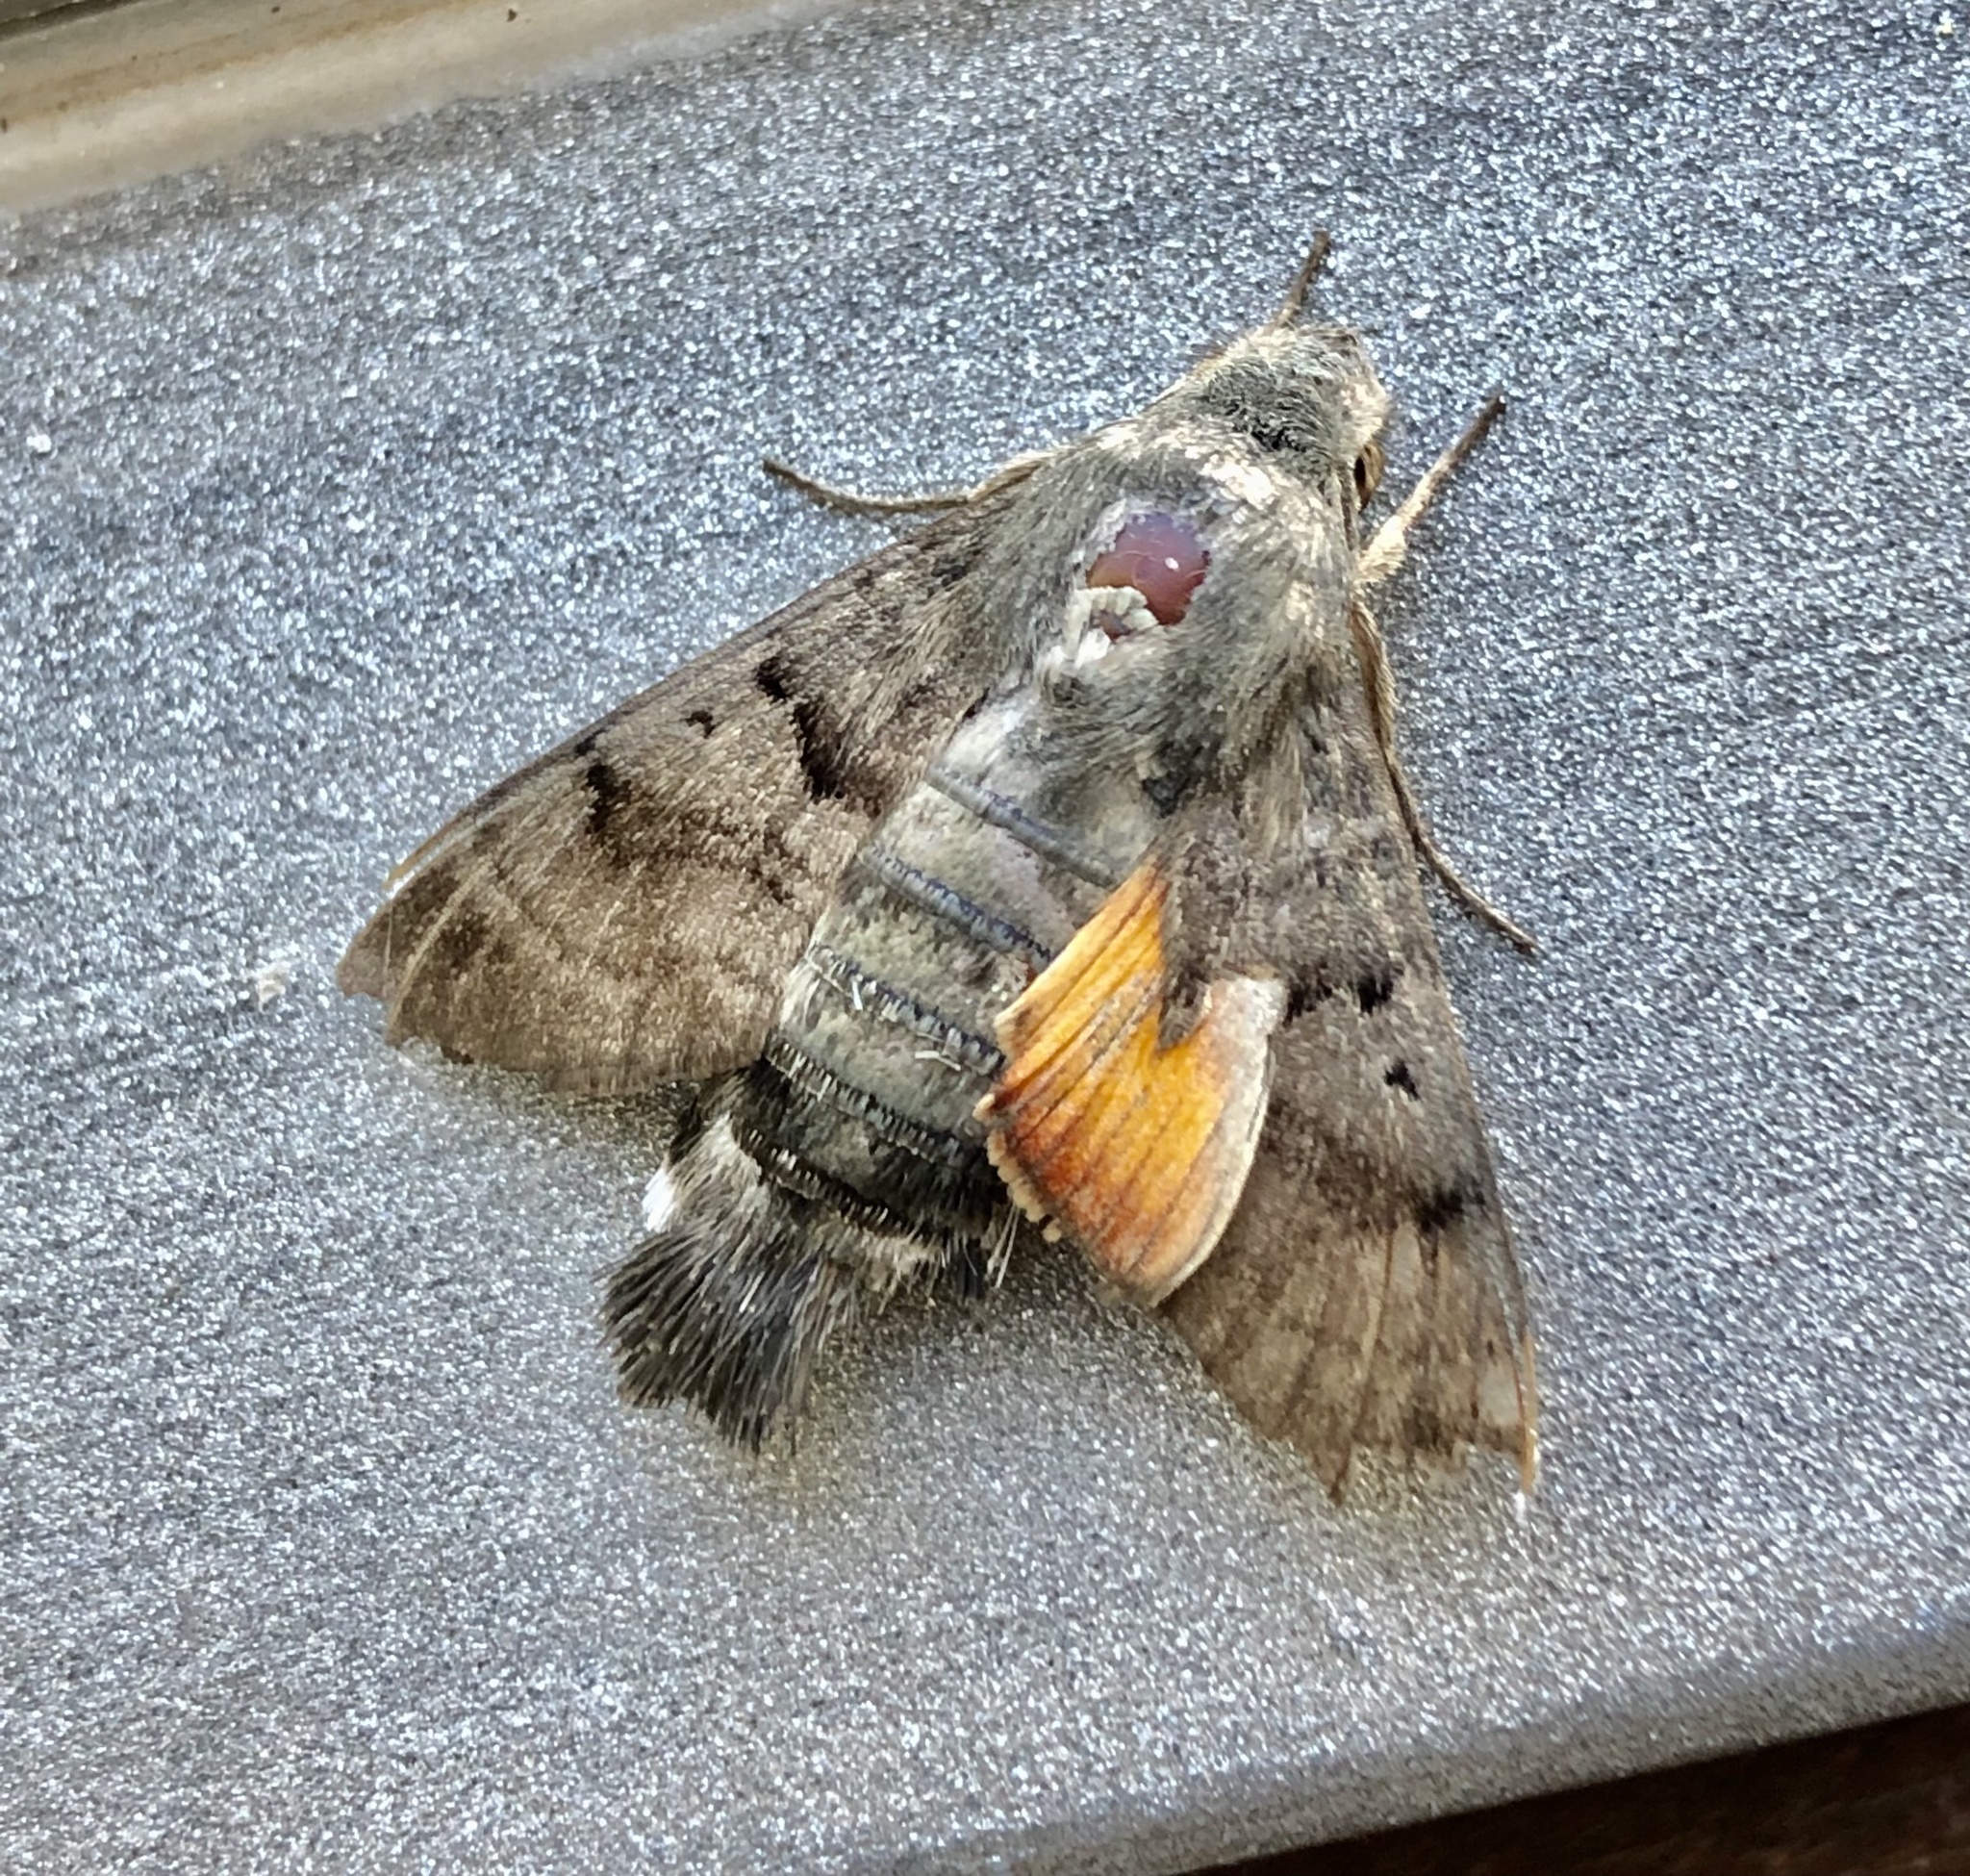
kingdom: Animalia
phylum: Arthropoda
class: Insecta
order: Lepidoptera
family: Sphingidae
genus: Macroglossum
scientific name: Macroglossum stellatarum
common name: Humming-bird hawk-moth
